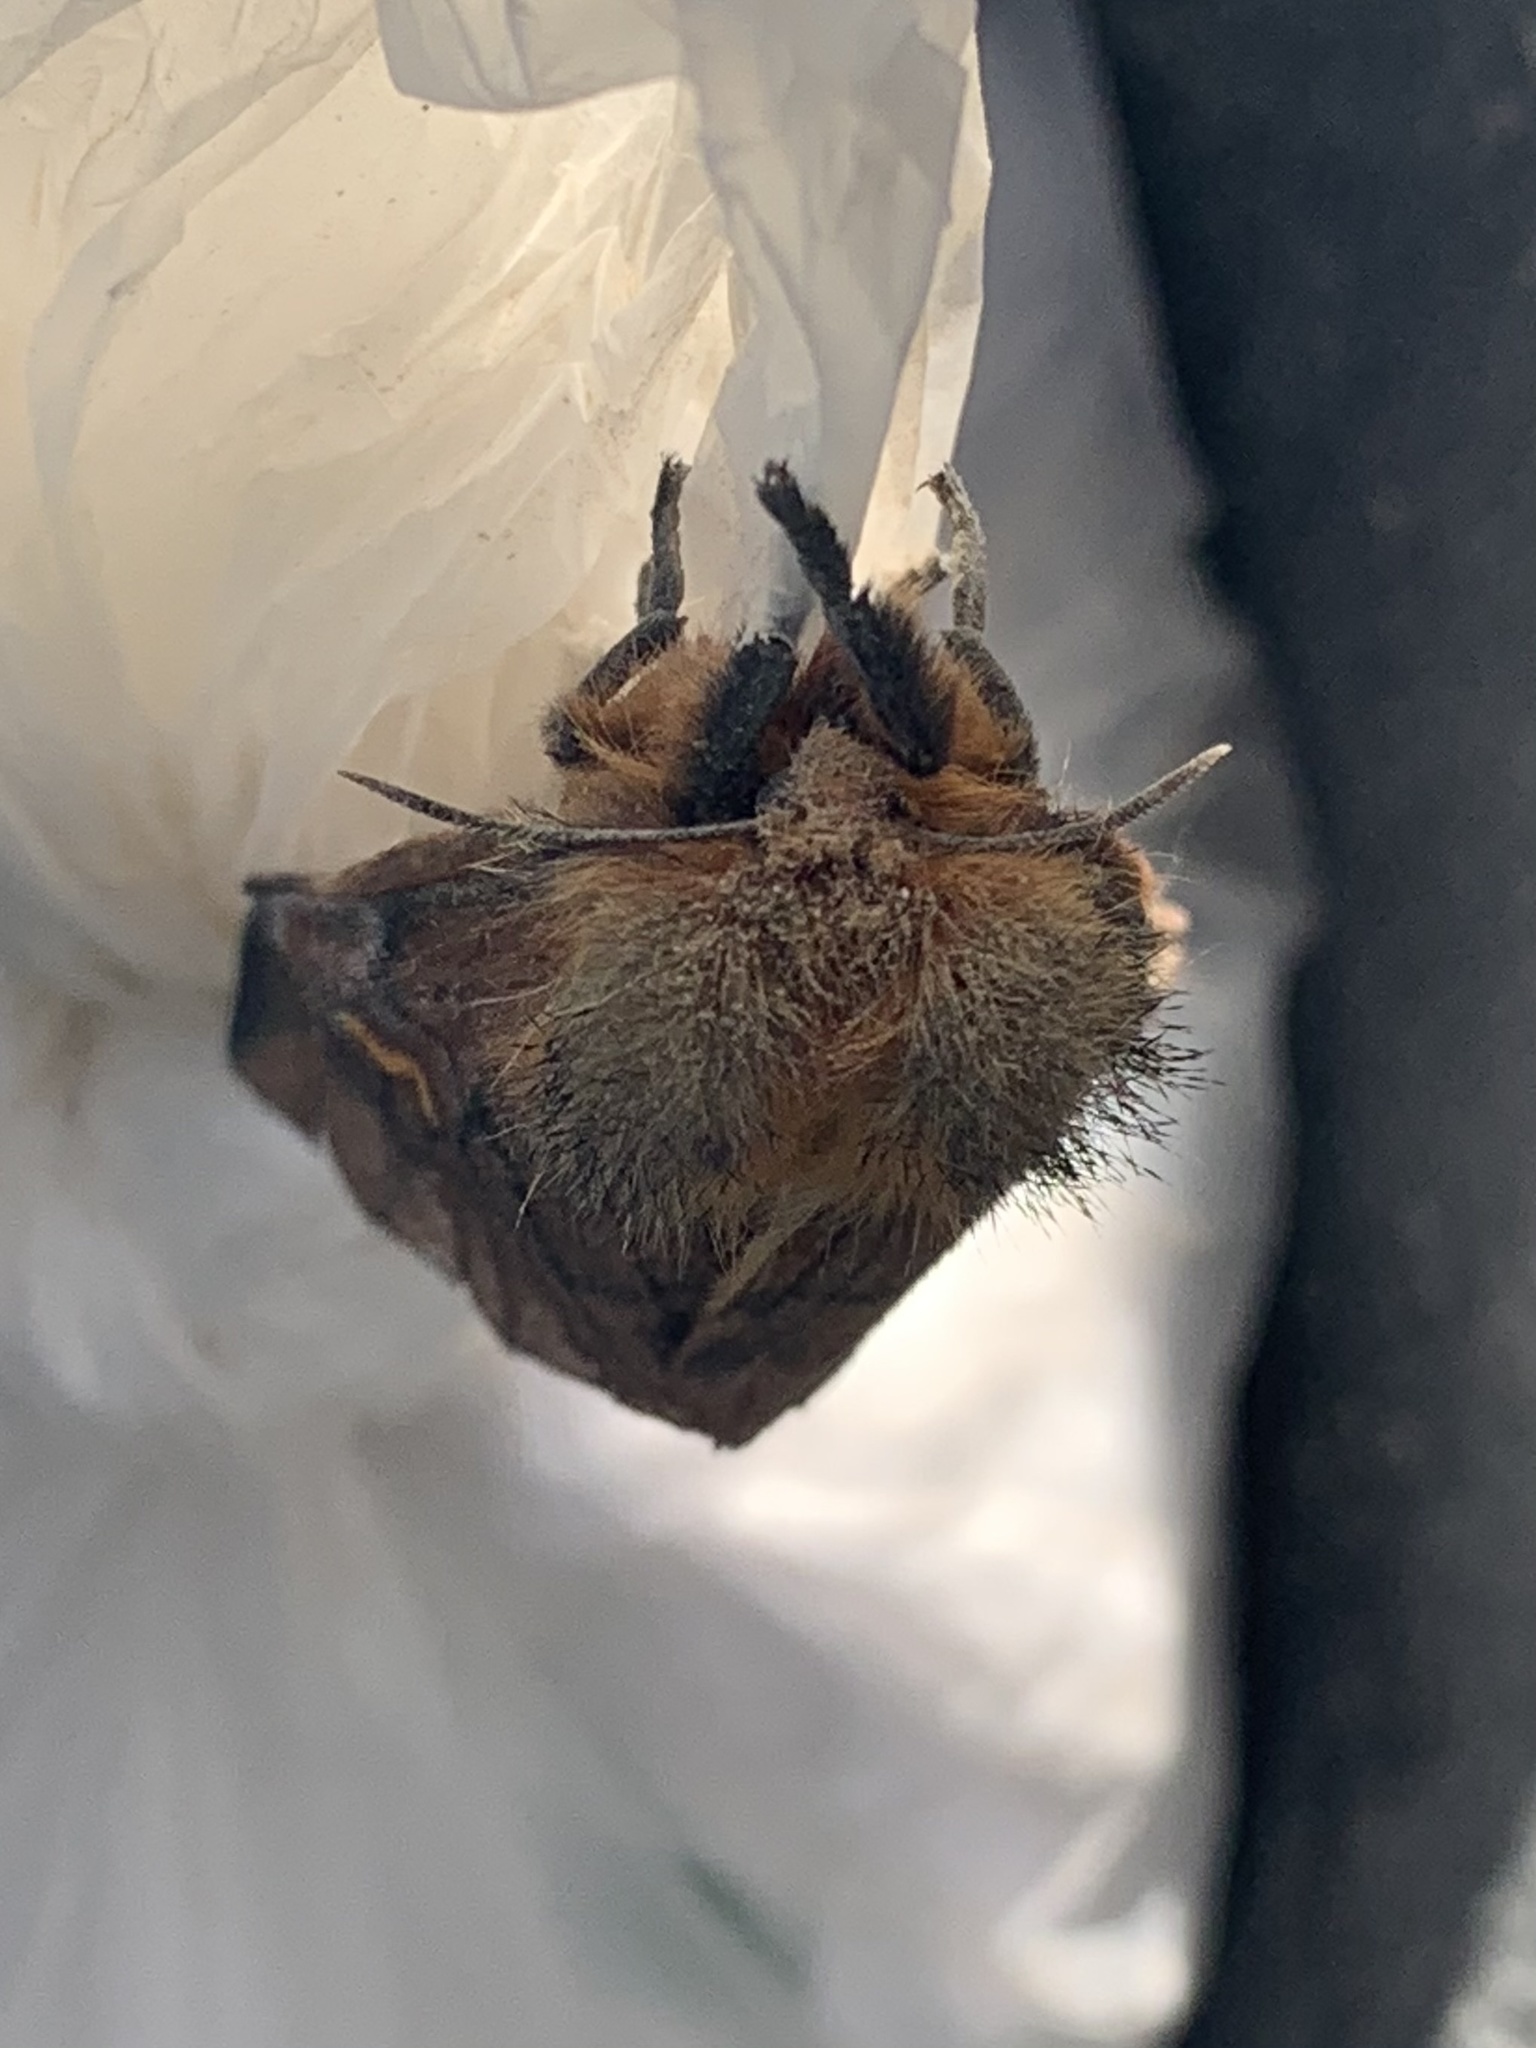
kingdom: Animalia
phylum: Arthropoda
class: Insecta
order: Lepidoptera
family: Saturniidae
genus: Ormiscodes
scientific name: Ormiscodes amphinome
